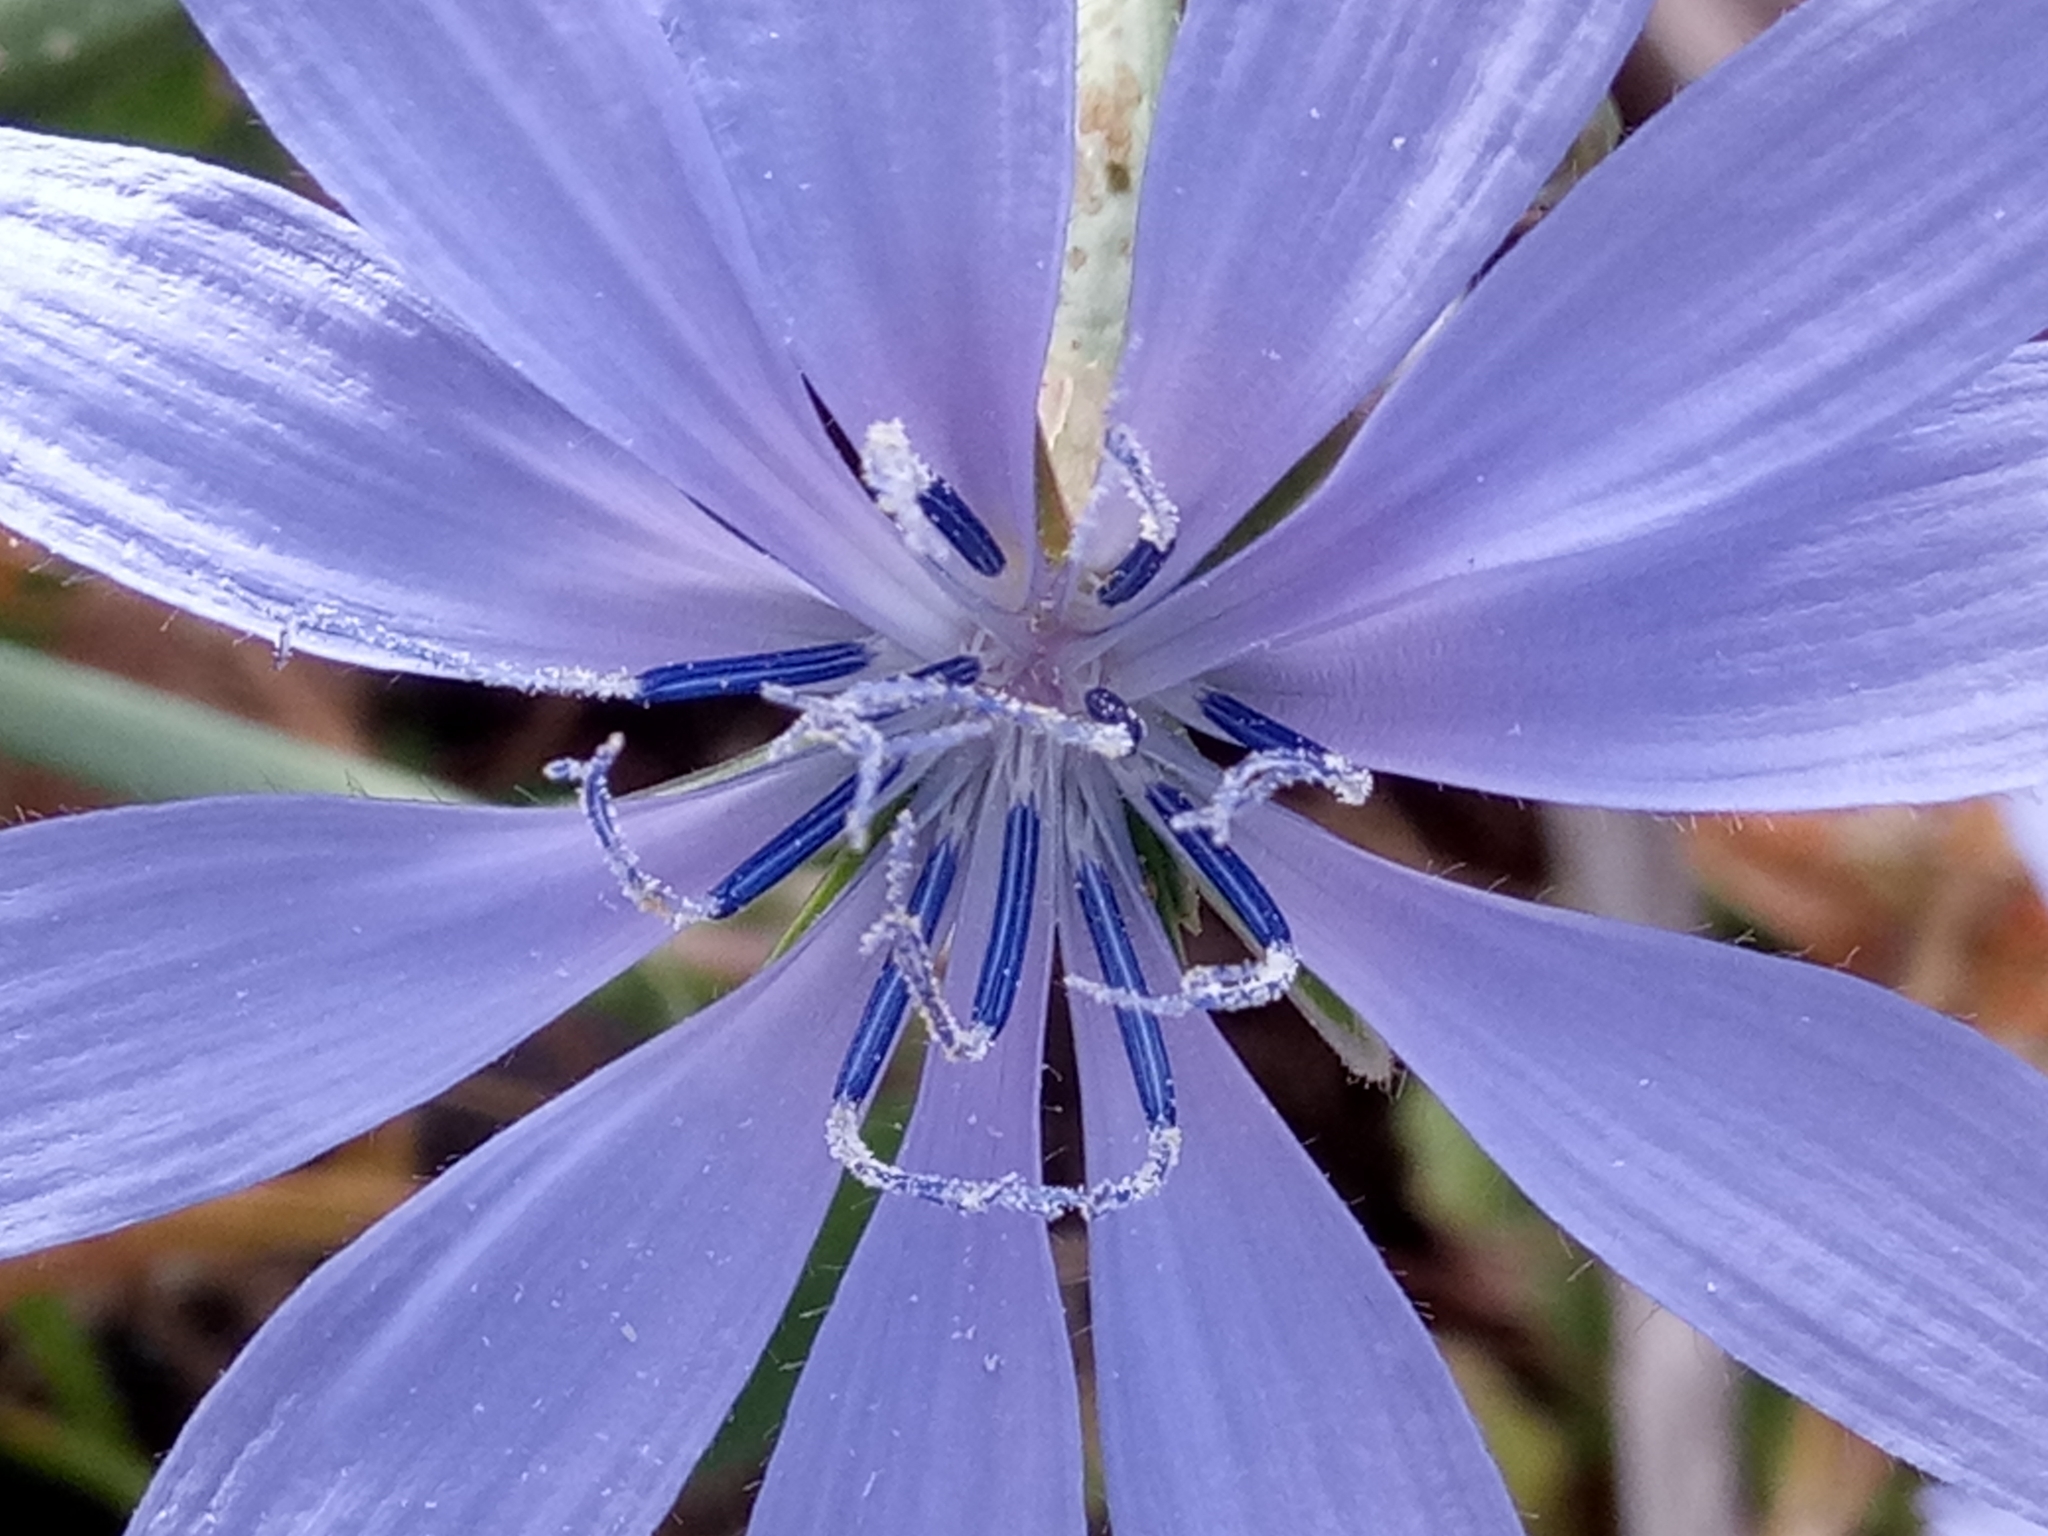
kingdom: Plantae
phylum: Tracheophyta
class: Magnoliopsida
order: Asterales
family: Asteraceae
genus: Cichorium
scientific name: Cichorium intybus
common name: Chicory
